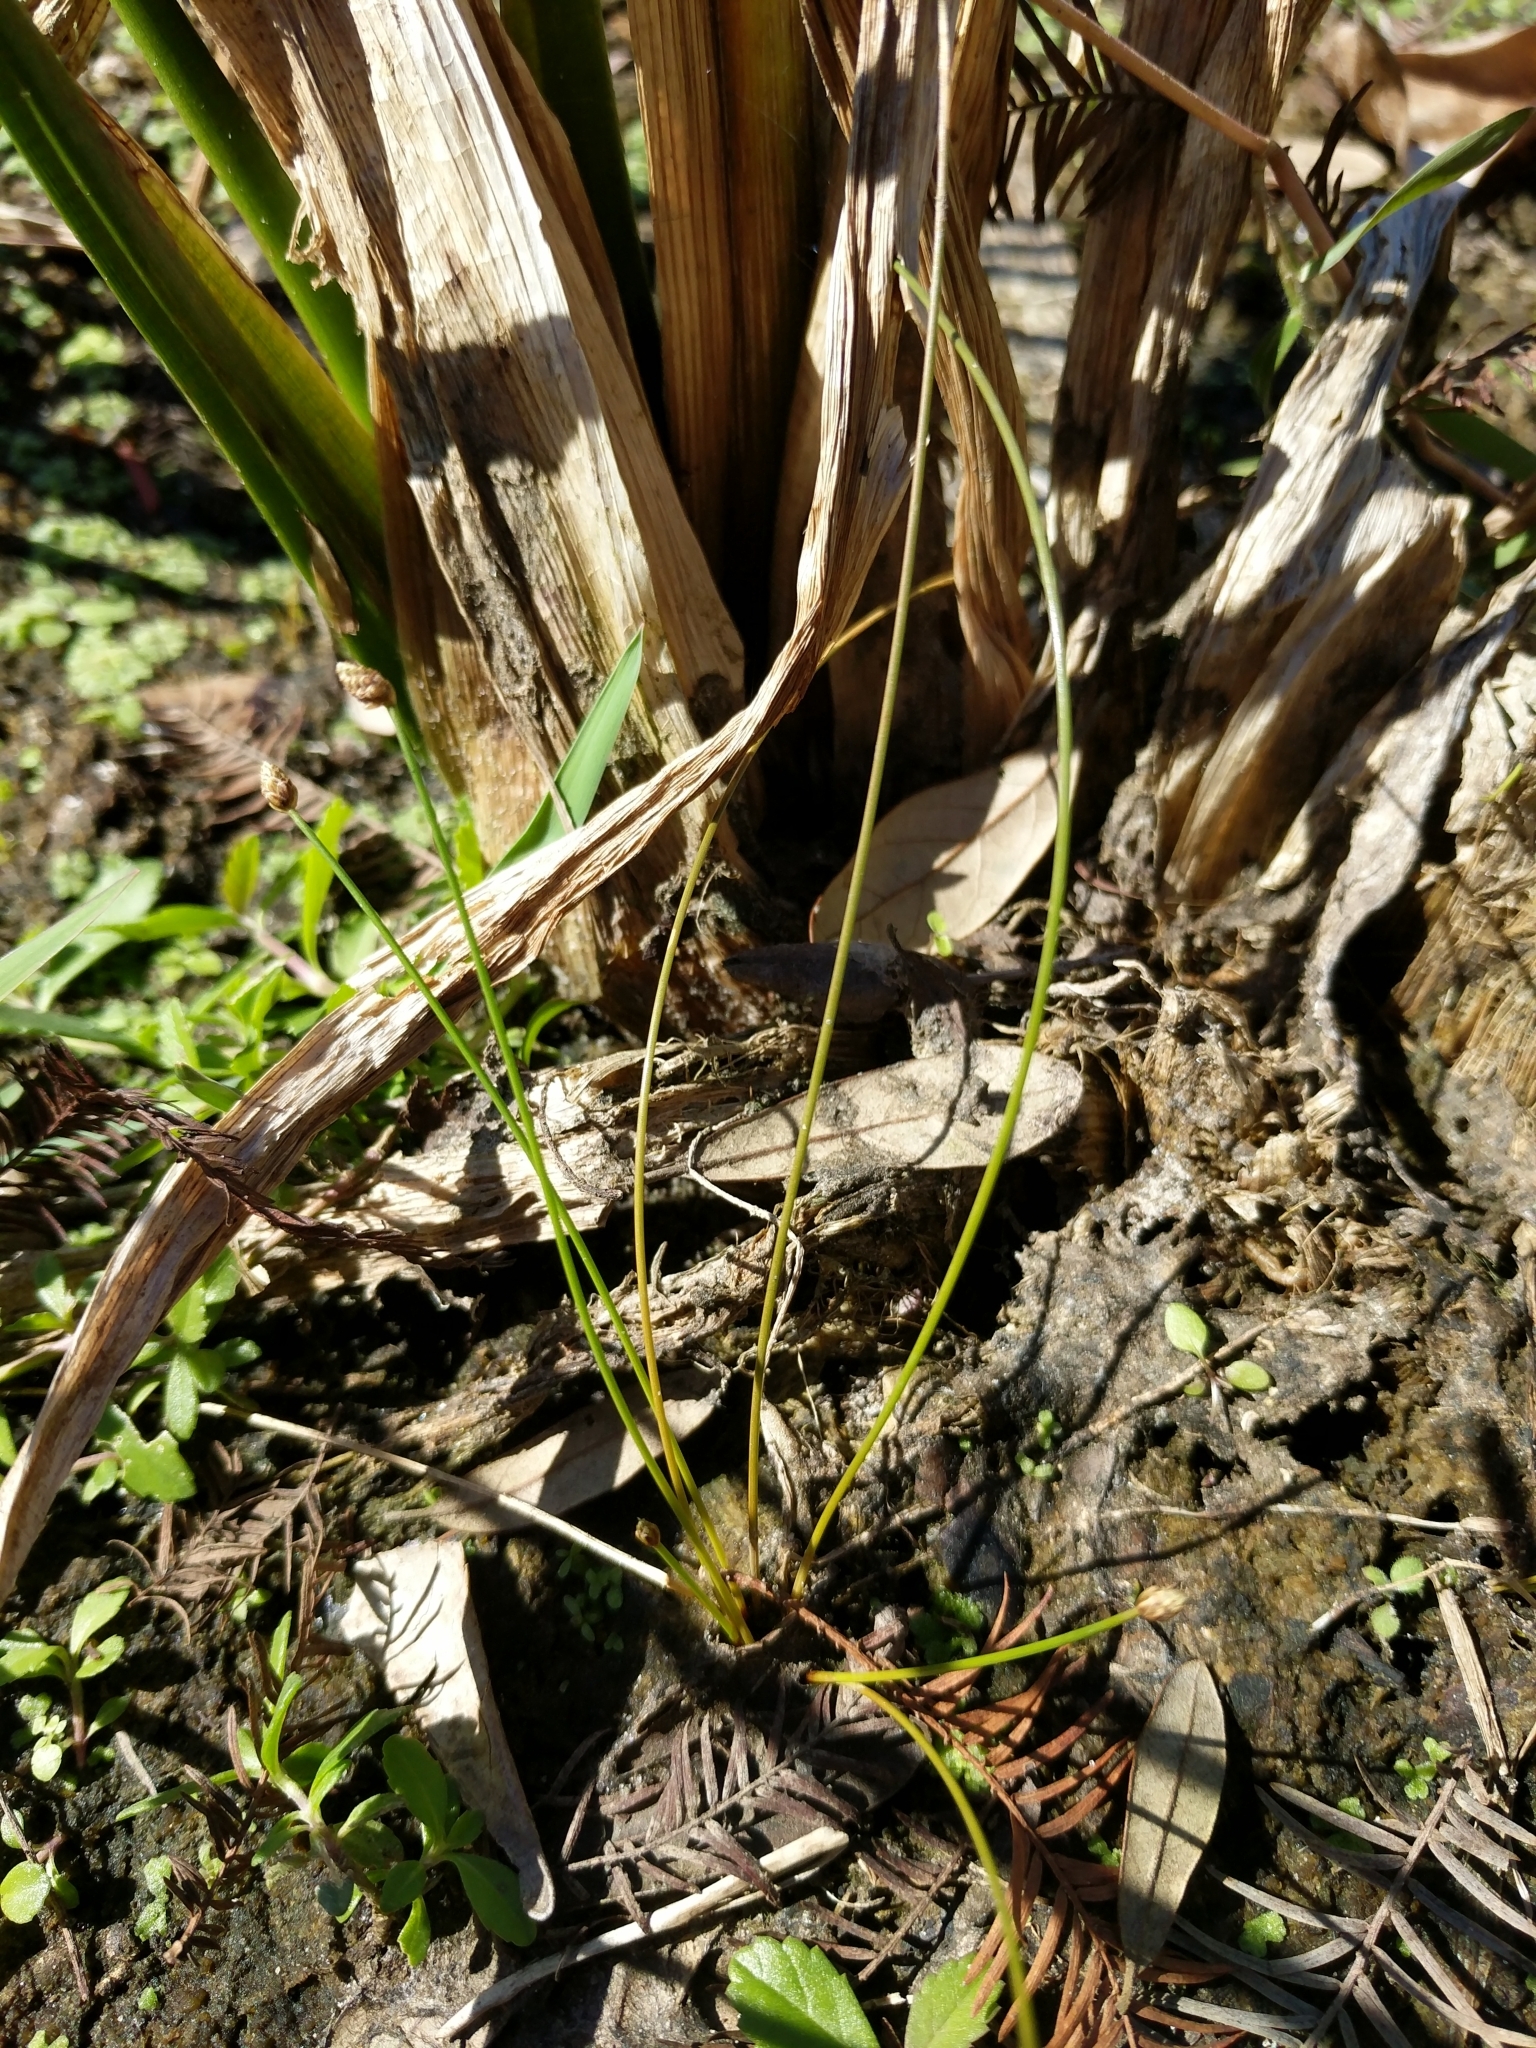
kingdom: Plantae
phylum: Tracheophyta
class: Liliopsida
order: Poales
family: Cyperaceae
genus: Eleocharis
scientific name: Eleocharis geniculata
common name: Canada spikesedge
